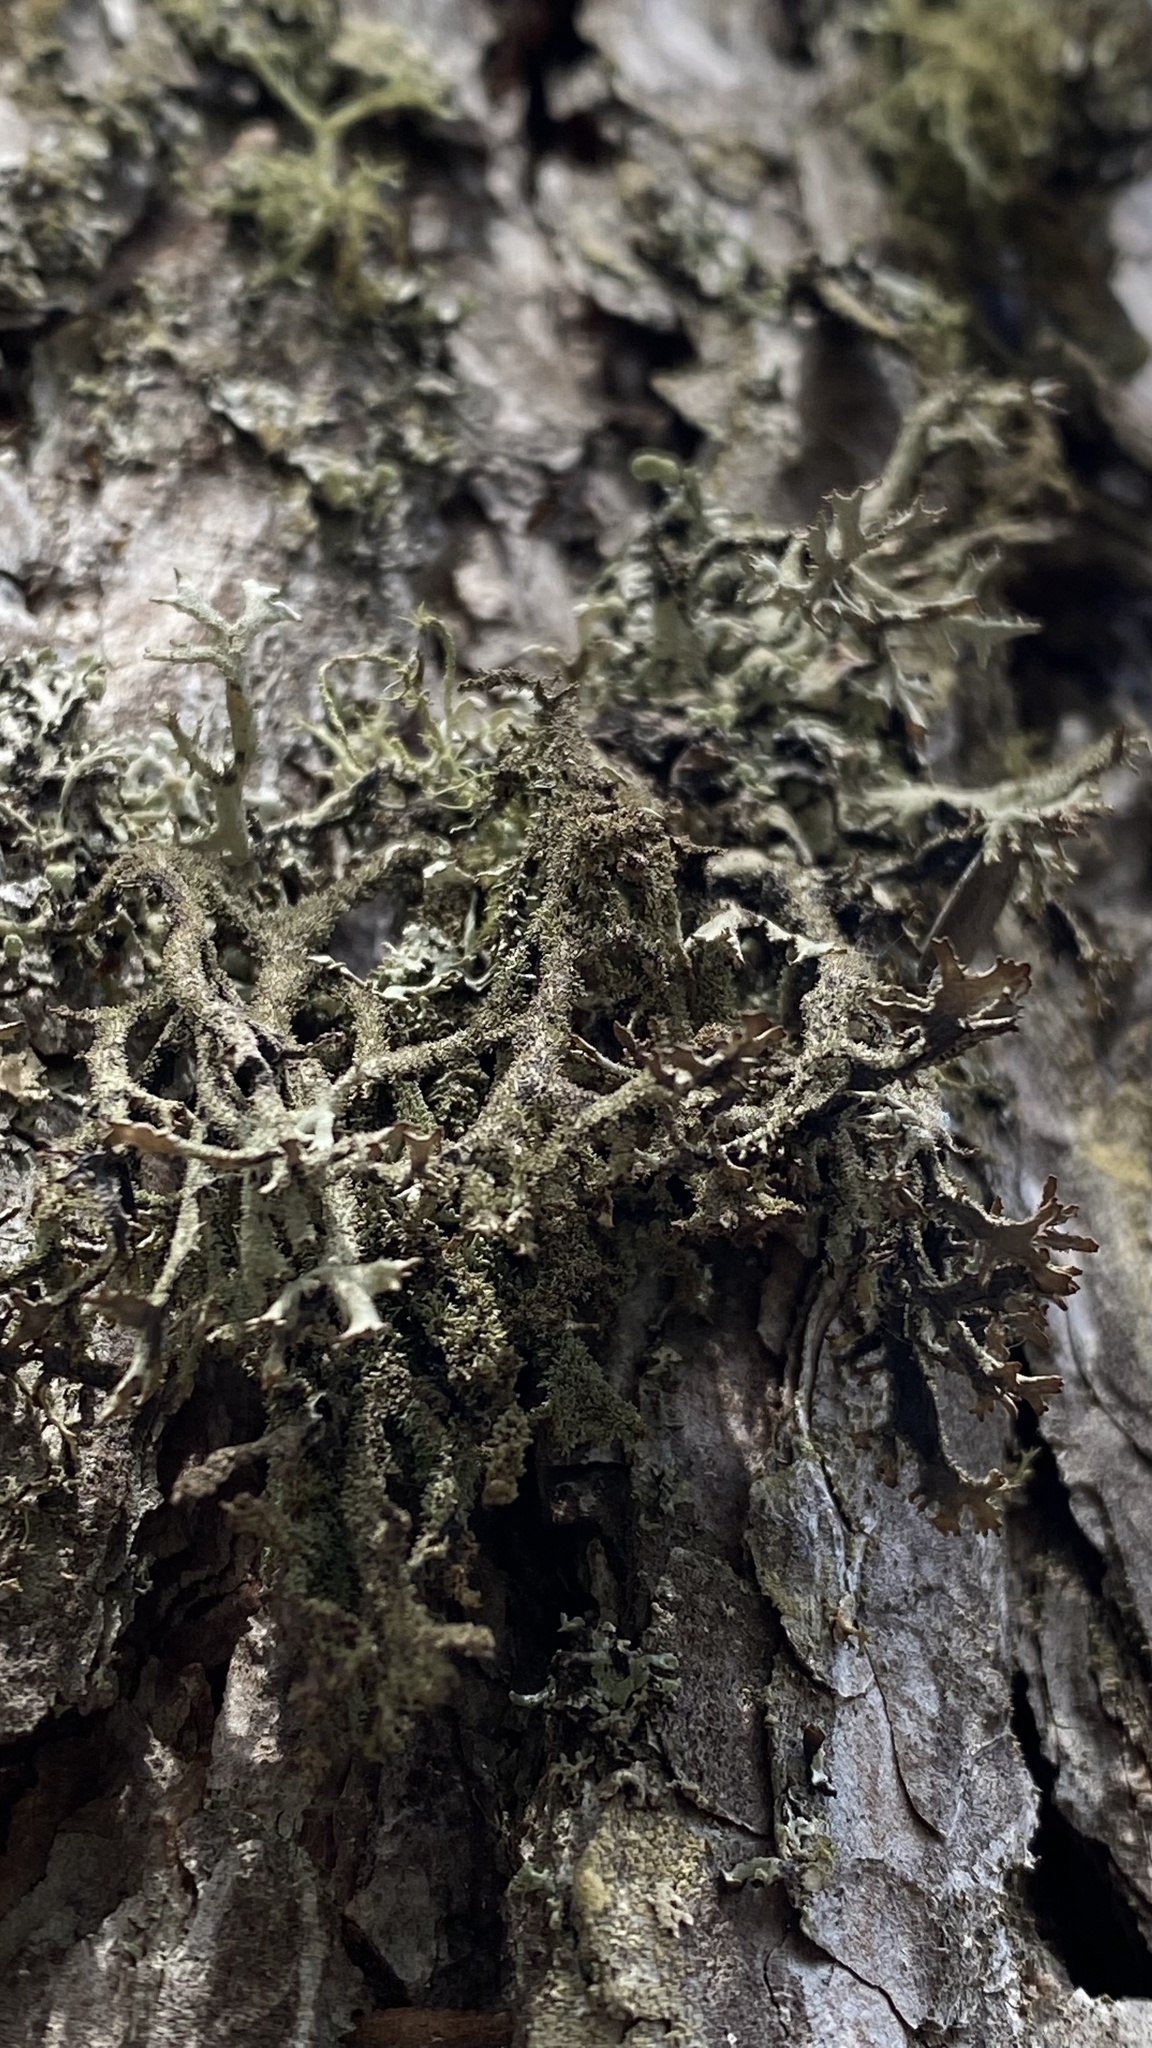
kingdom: Fungi
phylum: Ascomycota
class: Lecanoromycetes
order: Lecanorales
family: Parmeliaceae
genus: Pseudevernia
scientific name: Pseudevernia furfuracea
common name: Tree moss
